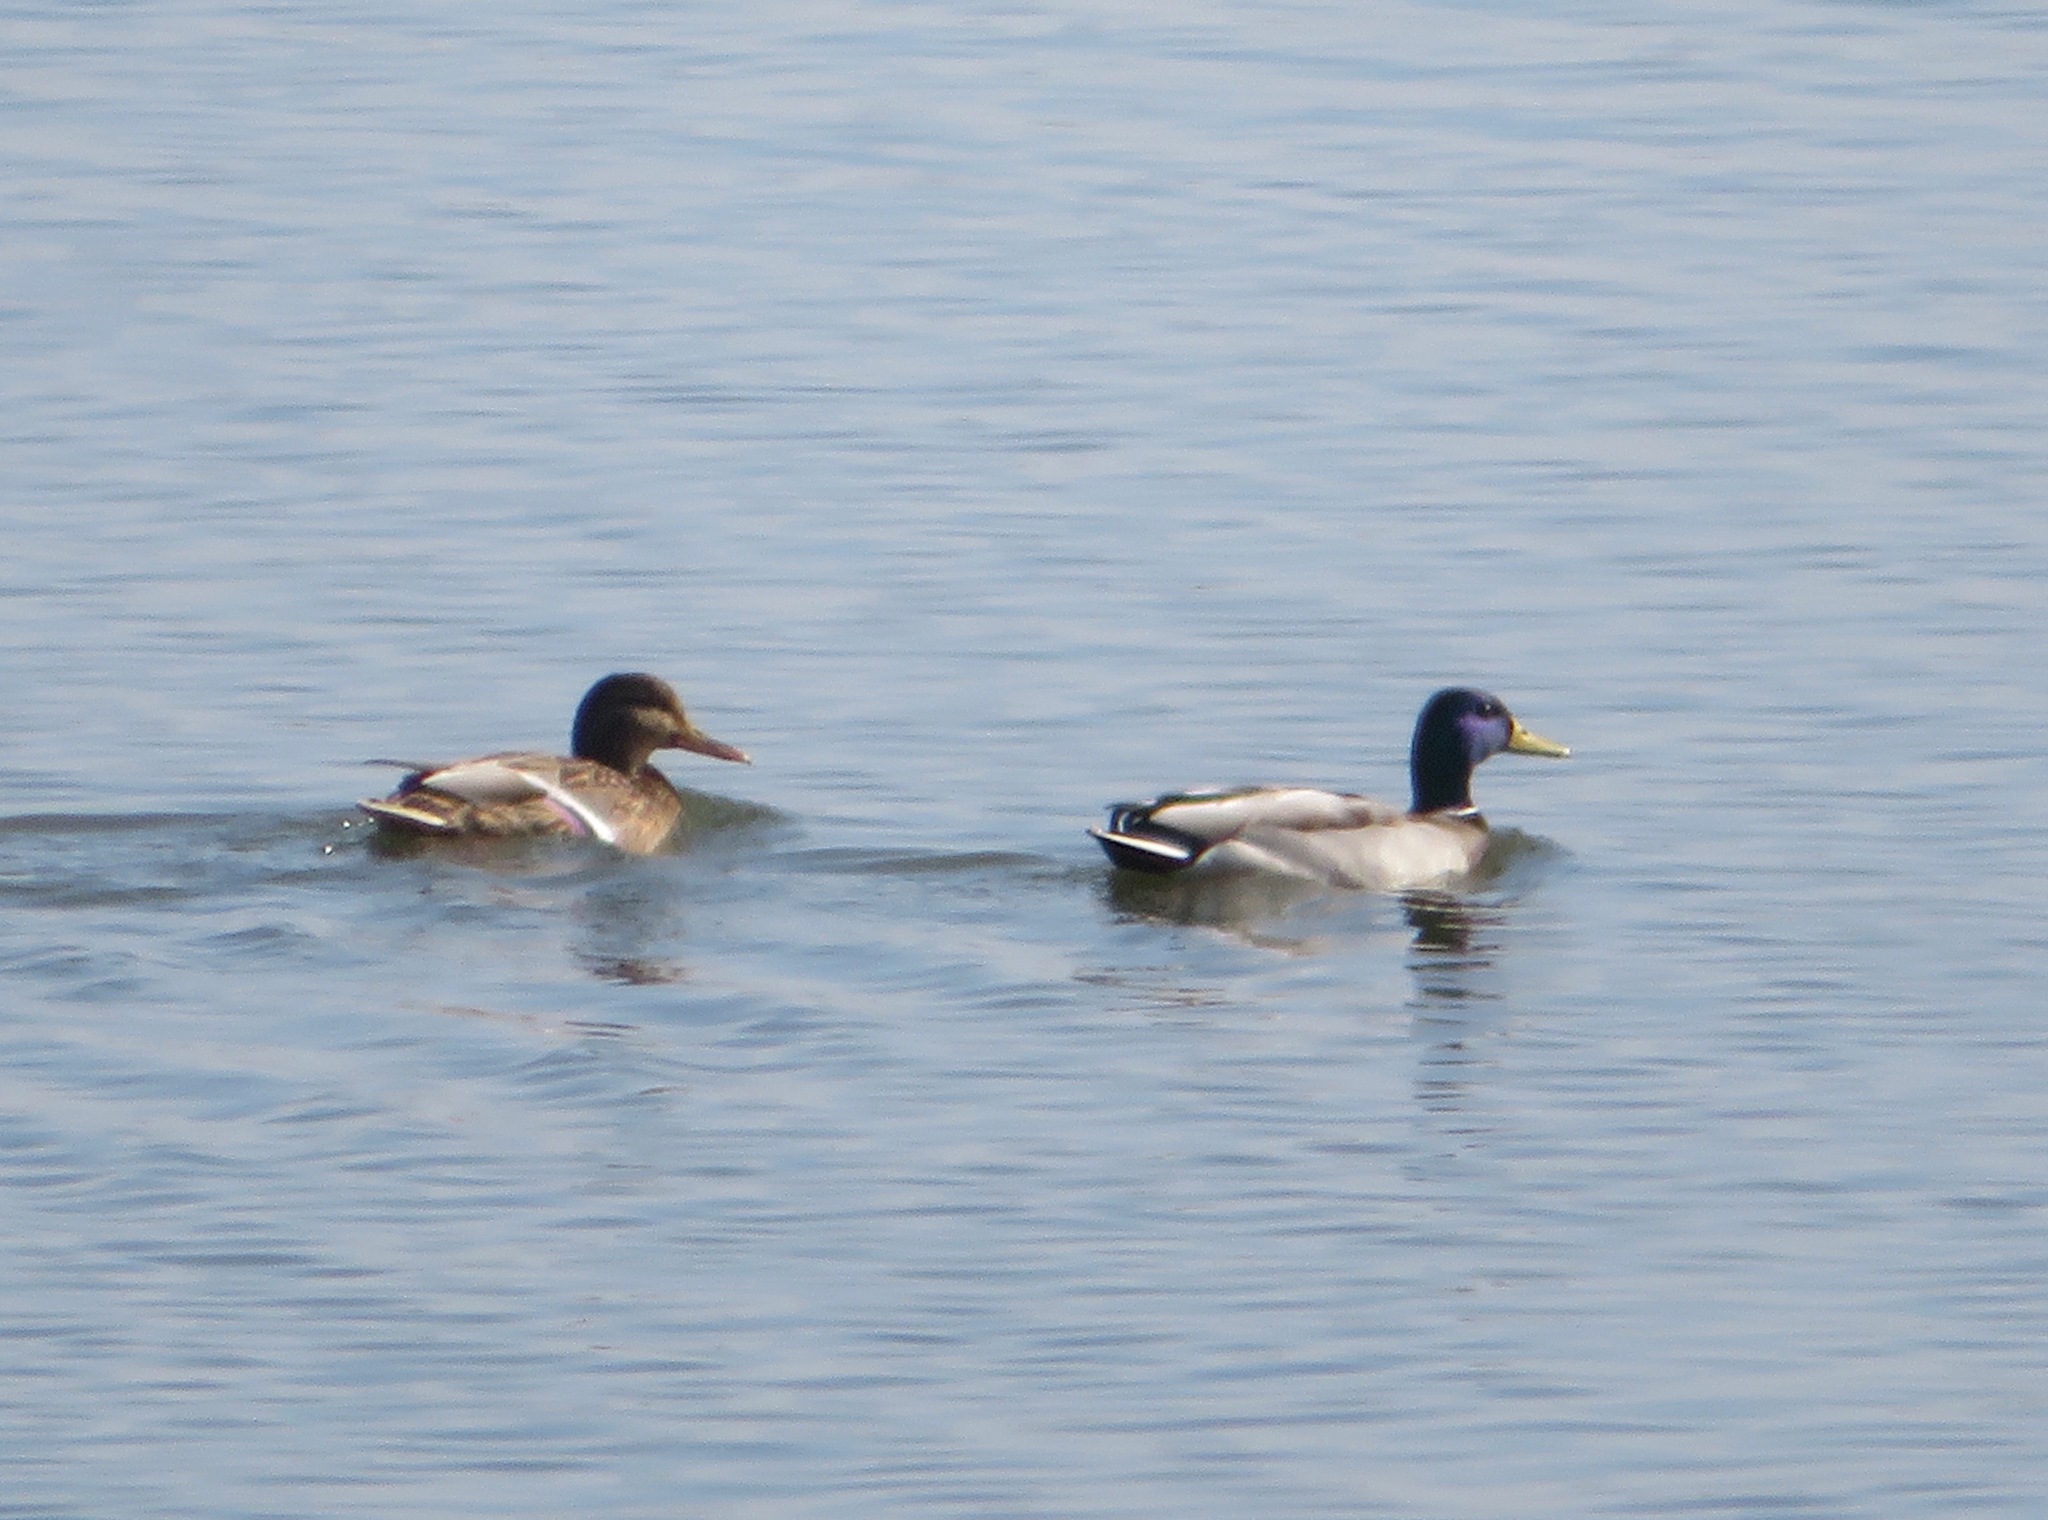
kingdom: Animalia
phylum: Chordata
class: Aves
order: Anseriformes
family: Anatidae
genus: Anas
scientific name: Anas platyrhynchos
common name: Mallard
